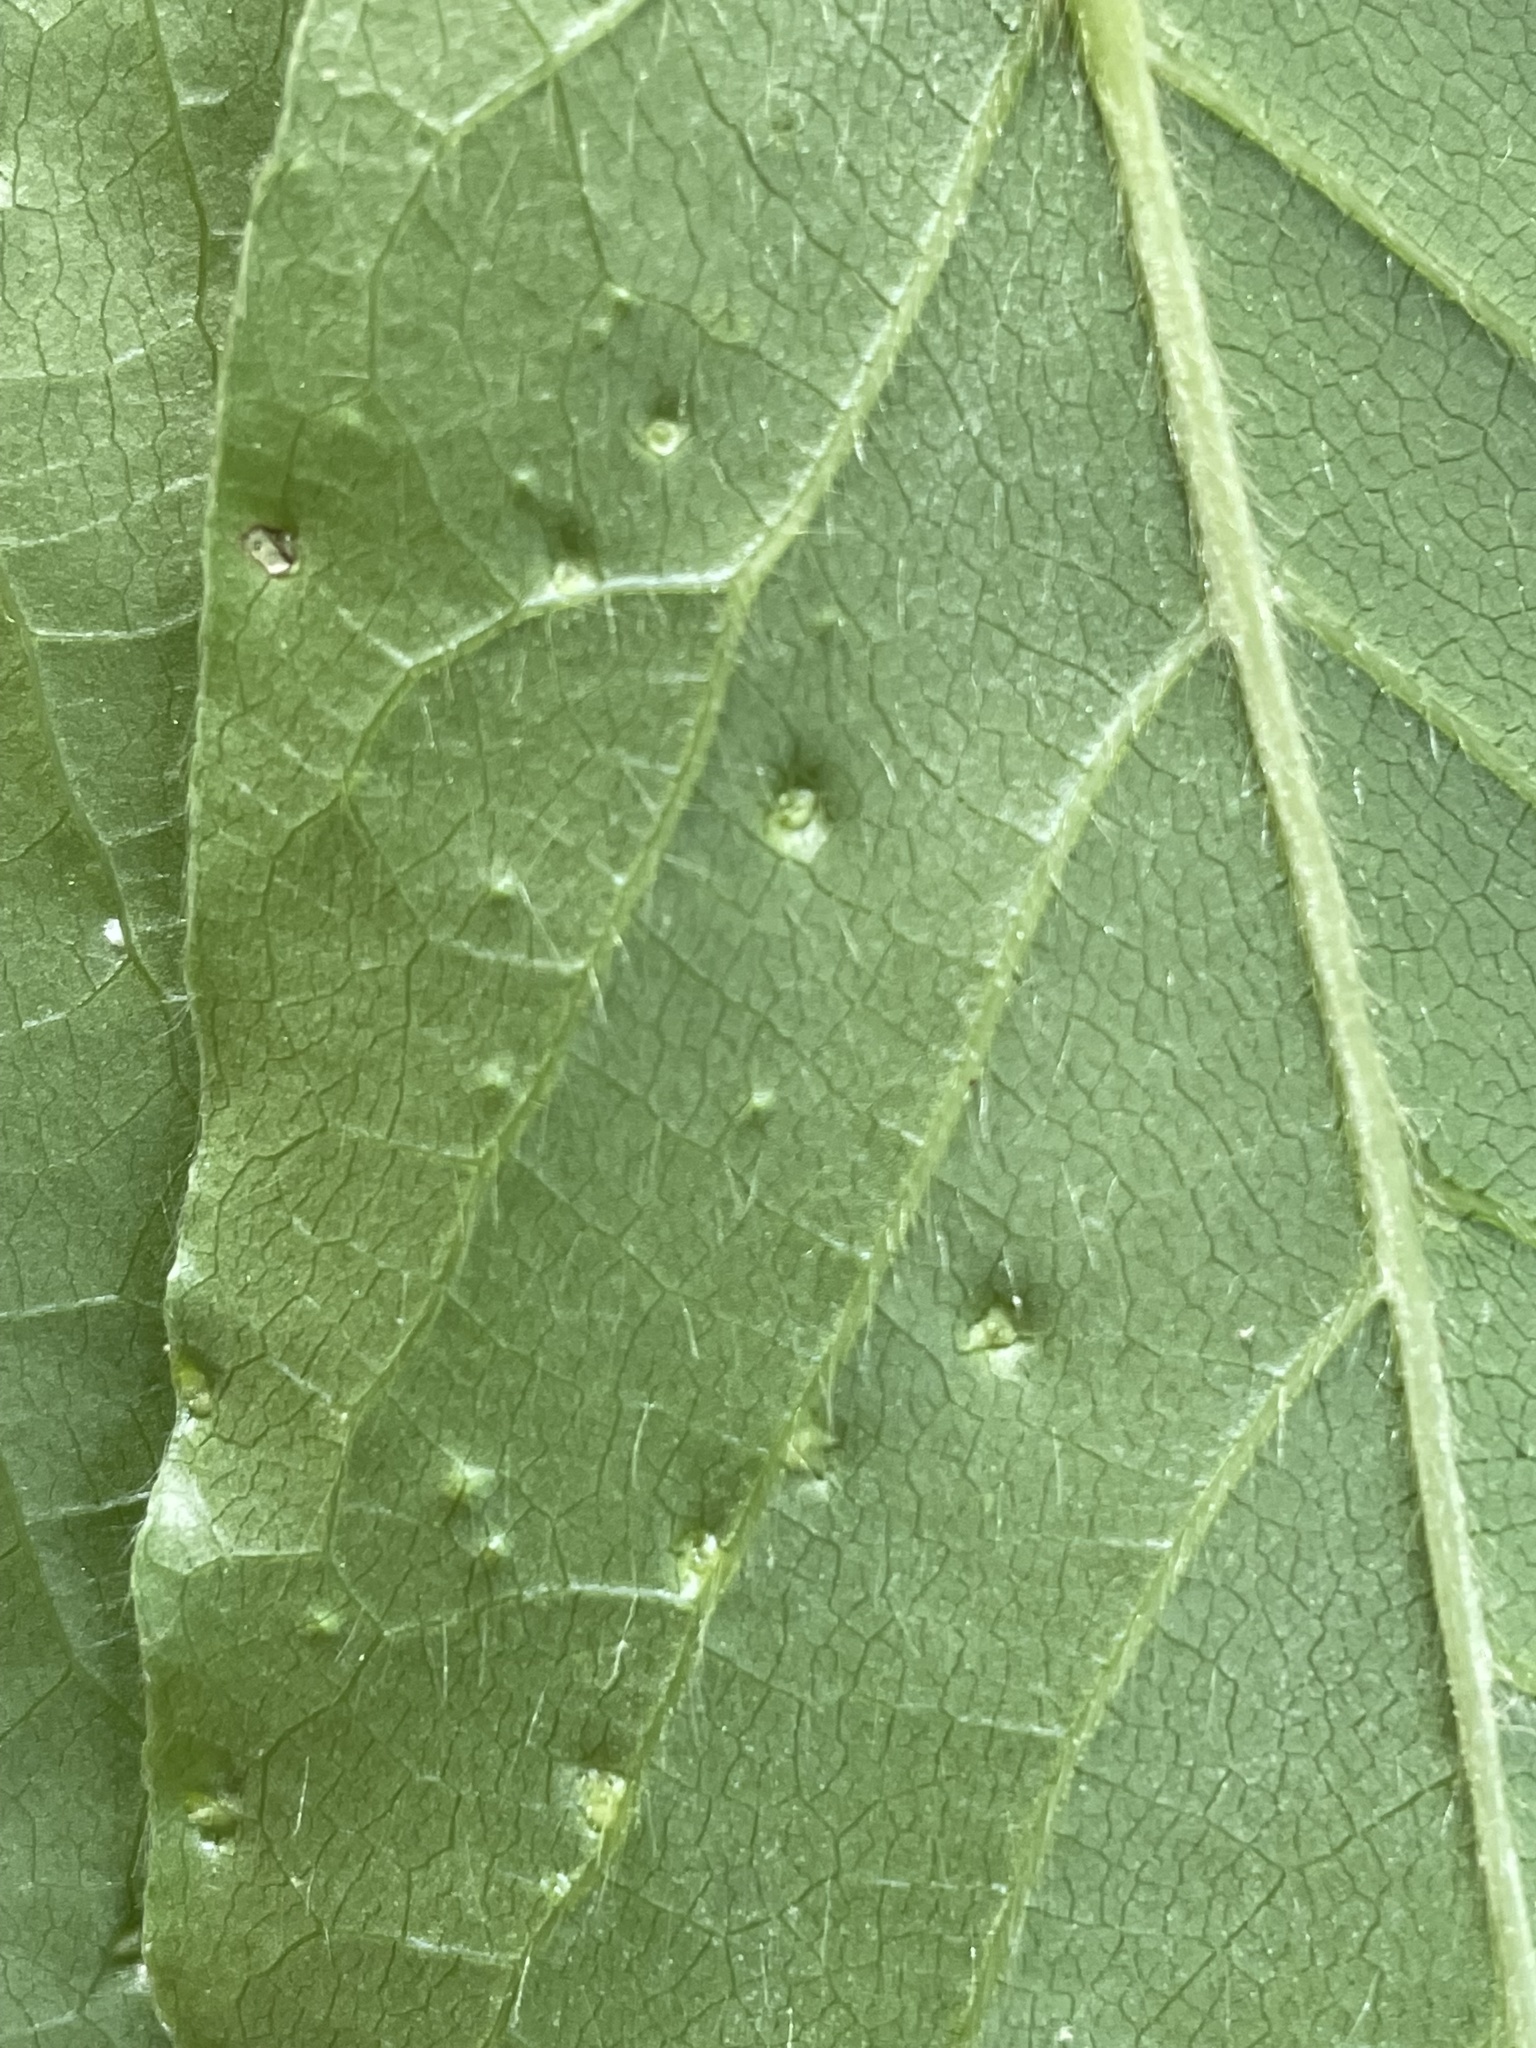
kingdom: Animalia
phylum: Arthropoda
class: Arachnida
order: Trombidiformes
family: Eriophyidae
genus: Aceria
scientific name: Aceria
